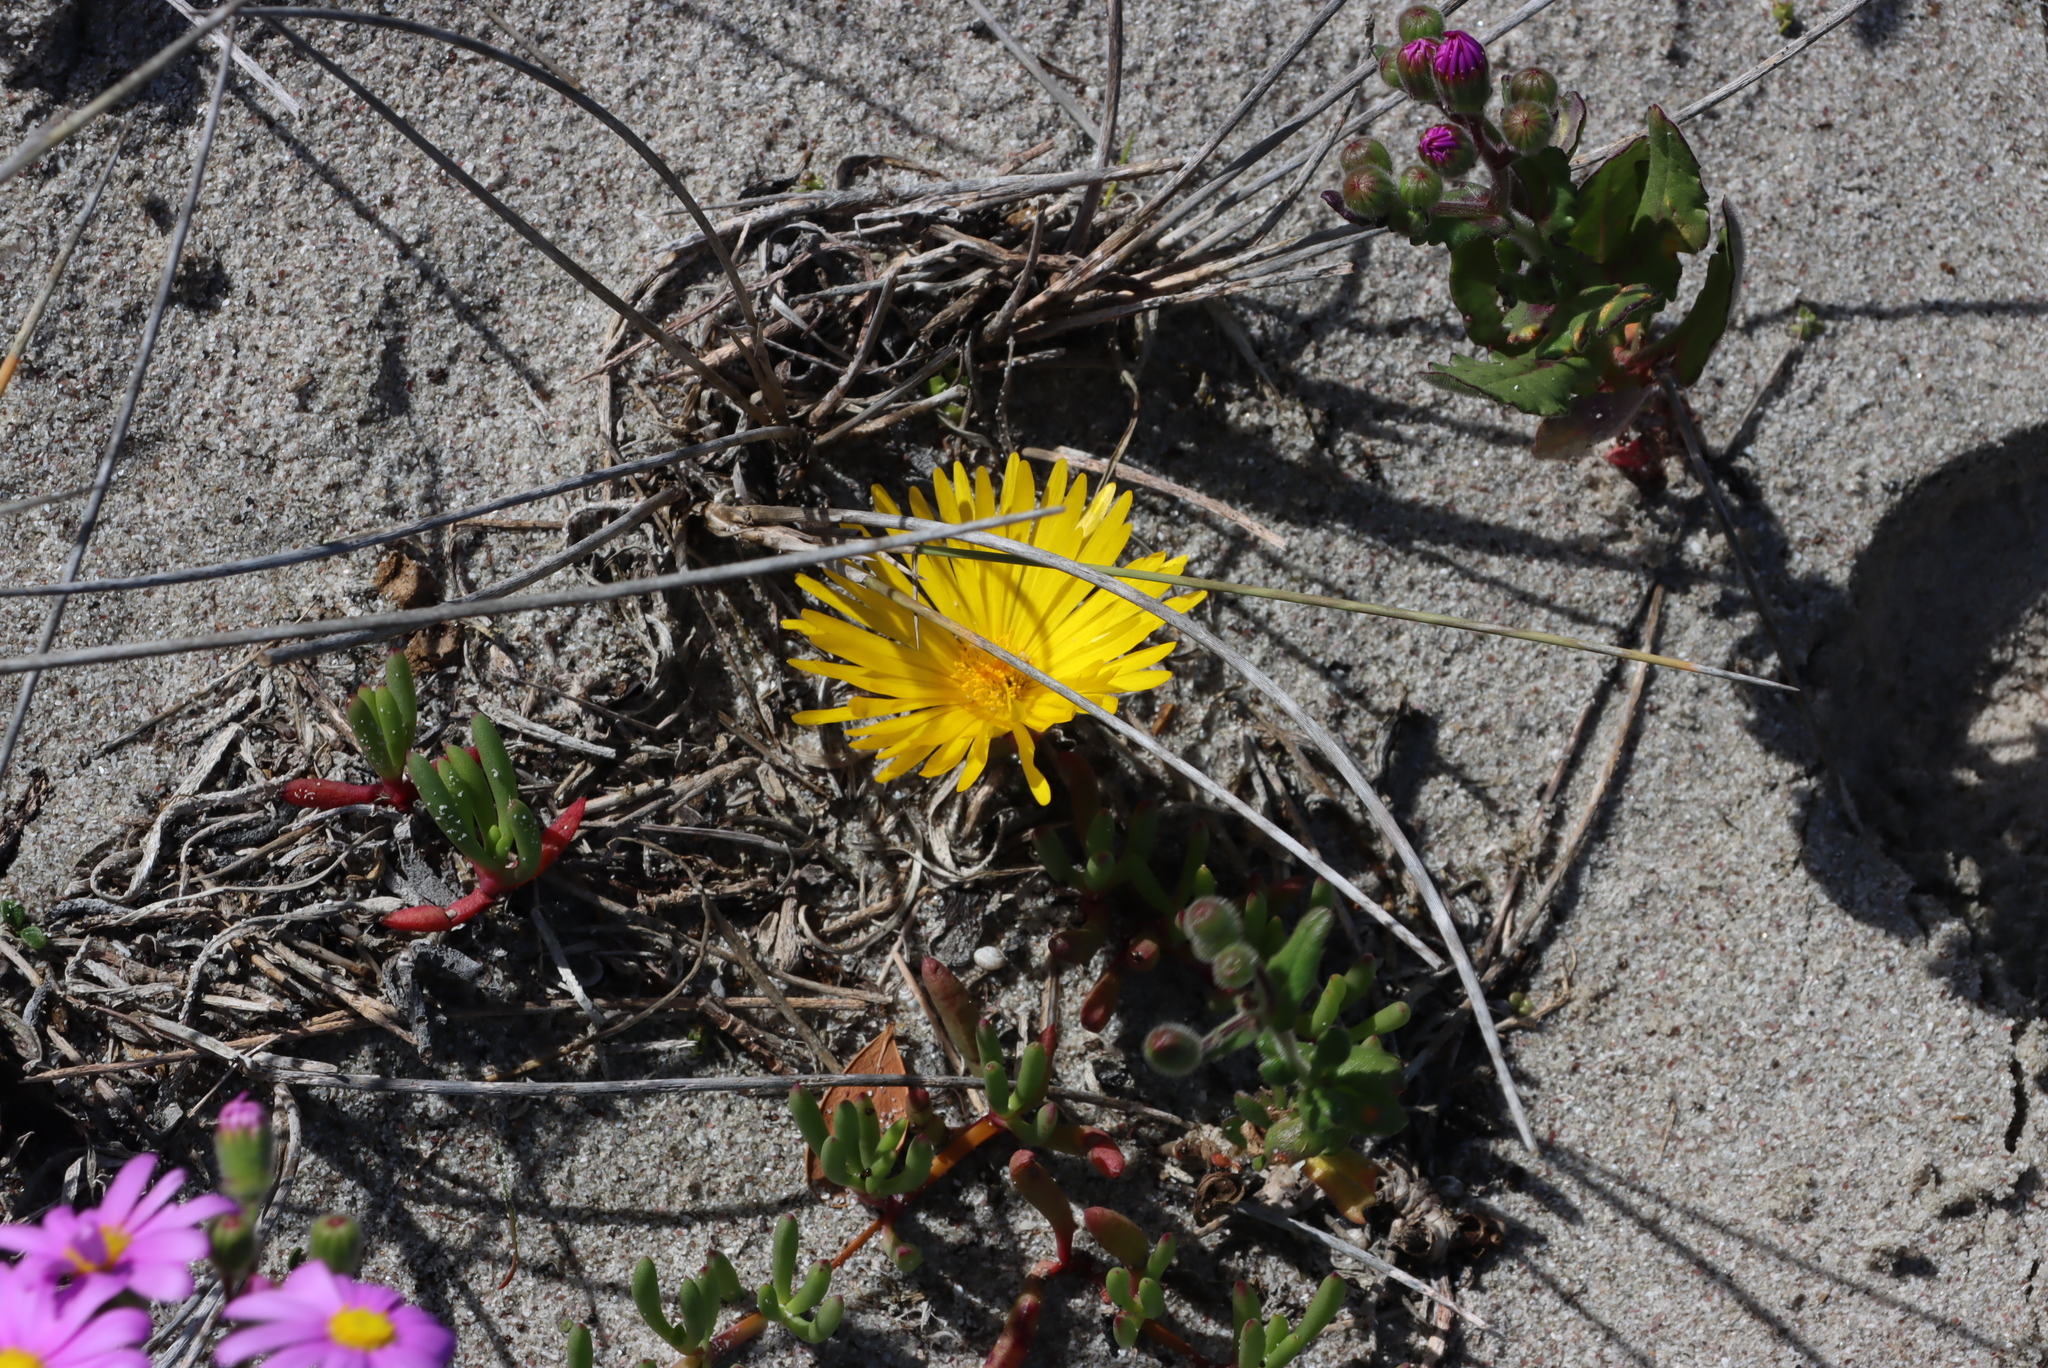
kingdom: Plantae
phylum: Tracheophyta
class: Magnoliopsida
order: Caryophyllales
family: Aizoaceae
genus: Jordaaniella
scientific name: Jordaaniella dubia
